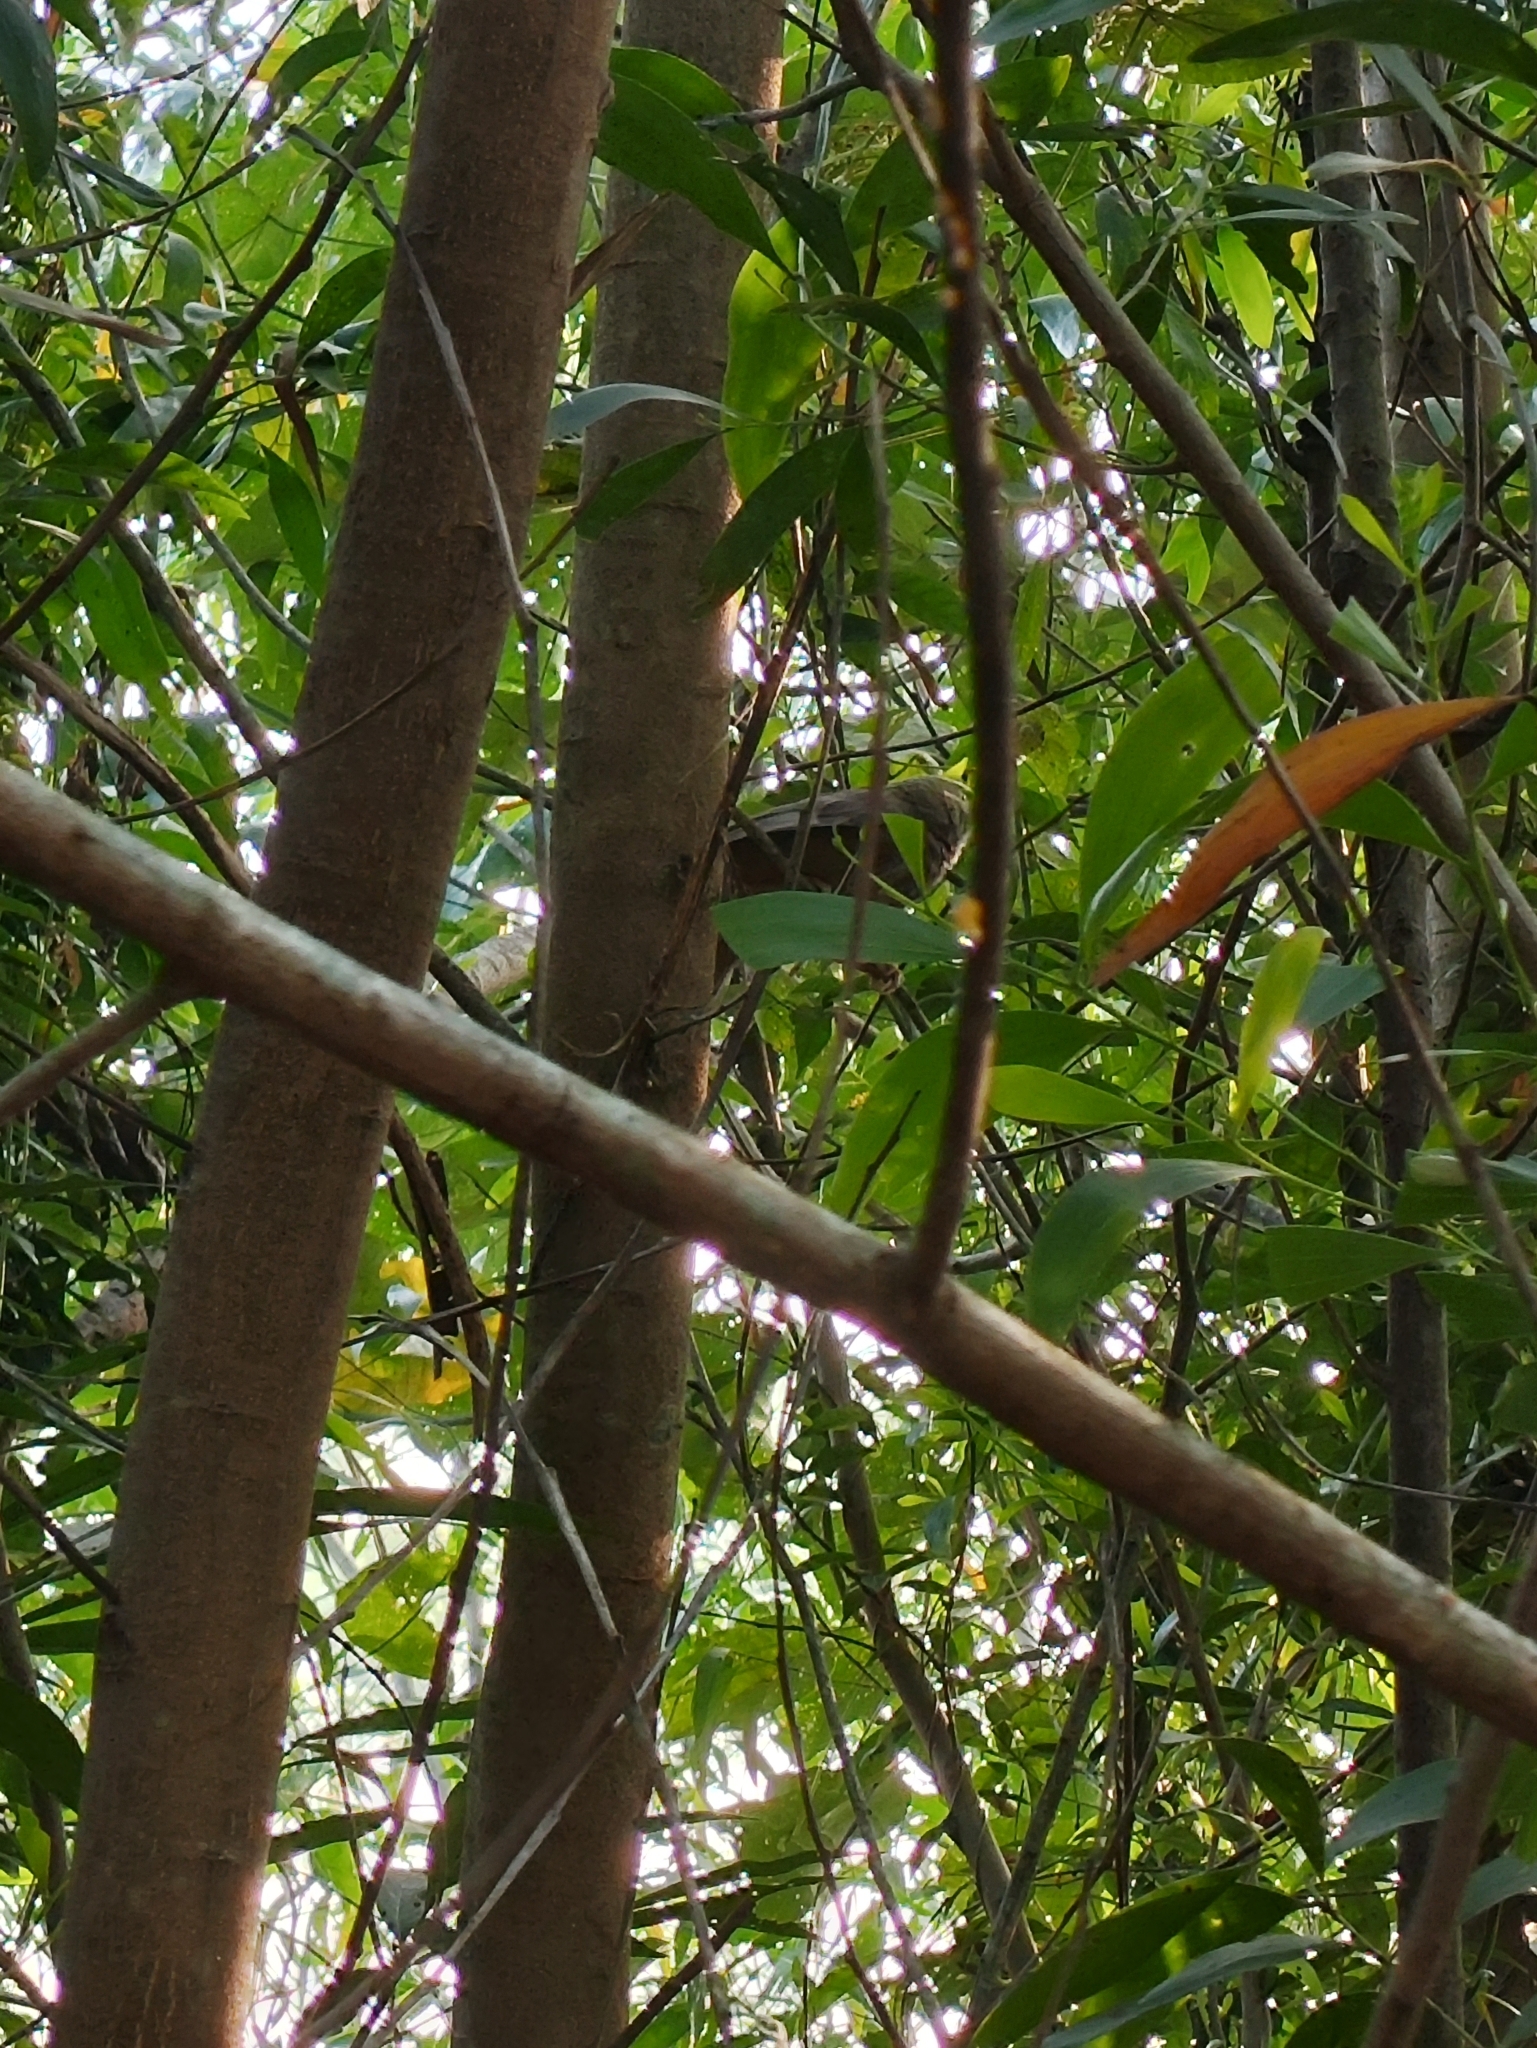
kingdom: Animalia
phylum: Chordata
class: Aves
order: Passeriformes
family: Leiothrichidae
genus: Turdoides
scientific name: Turdoides affinis
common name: Yellow-billed babbler
